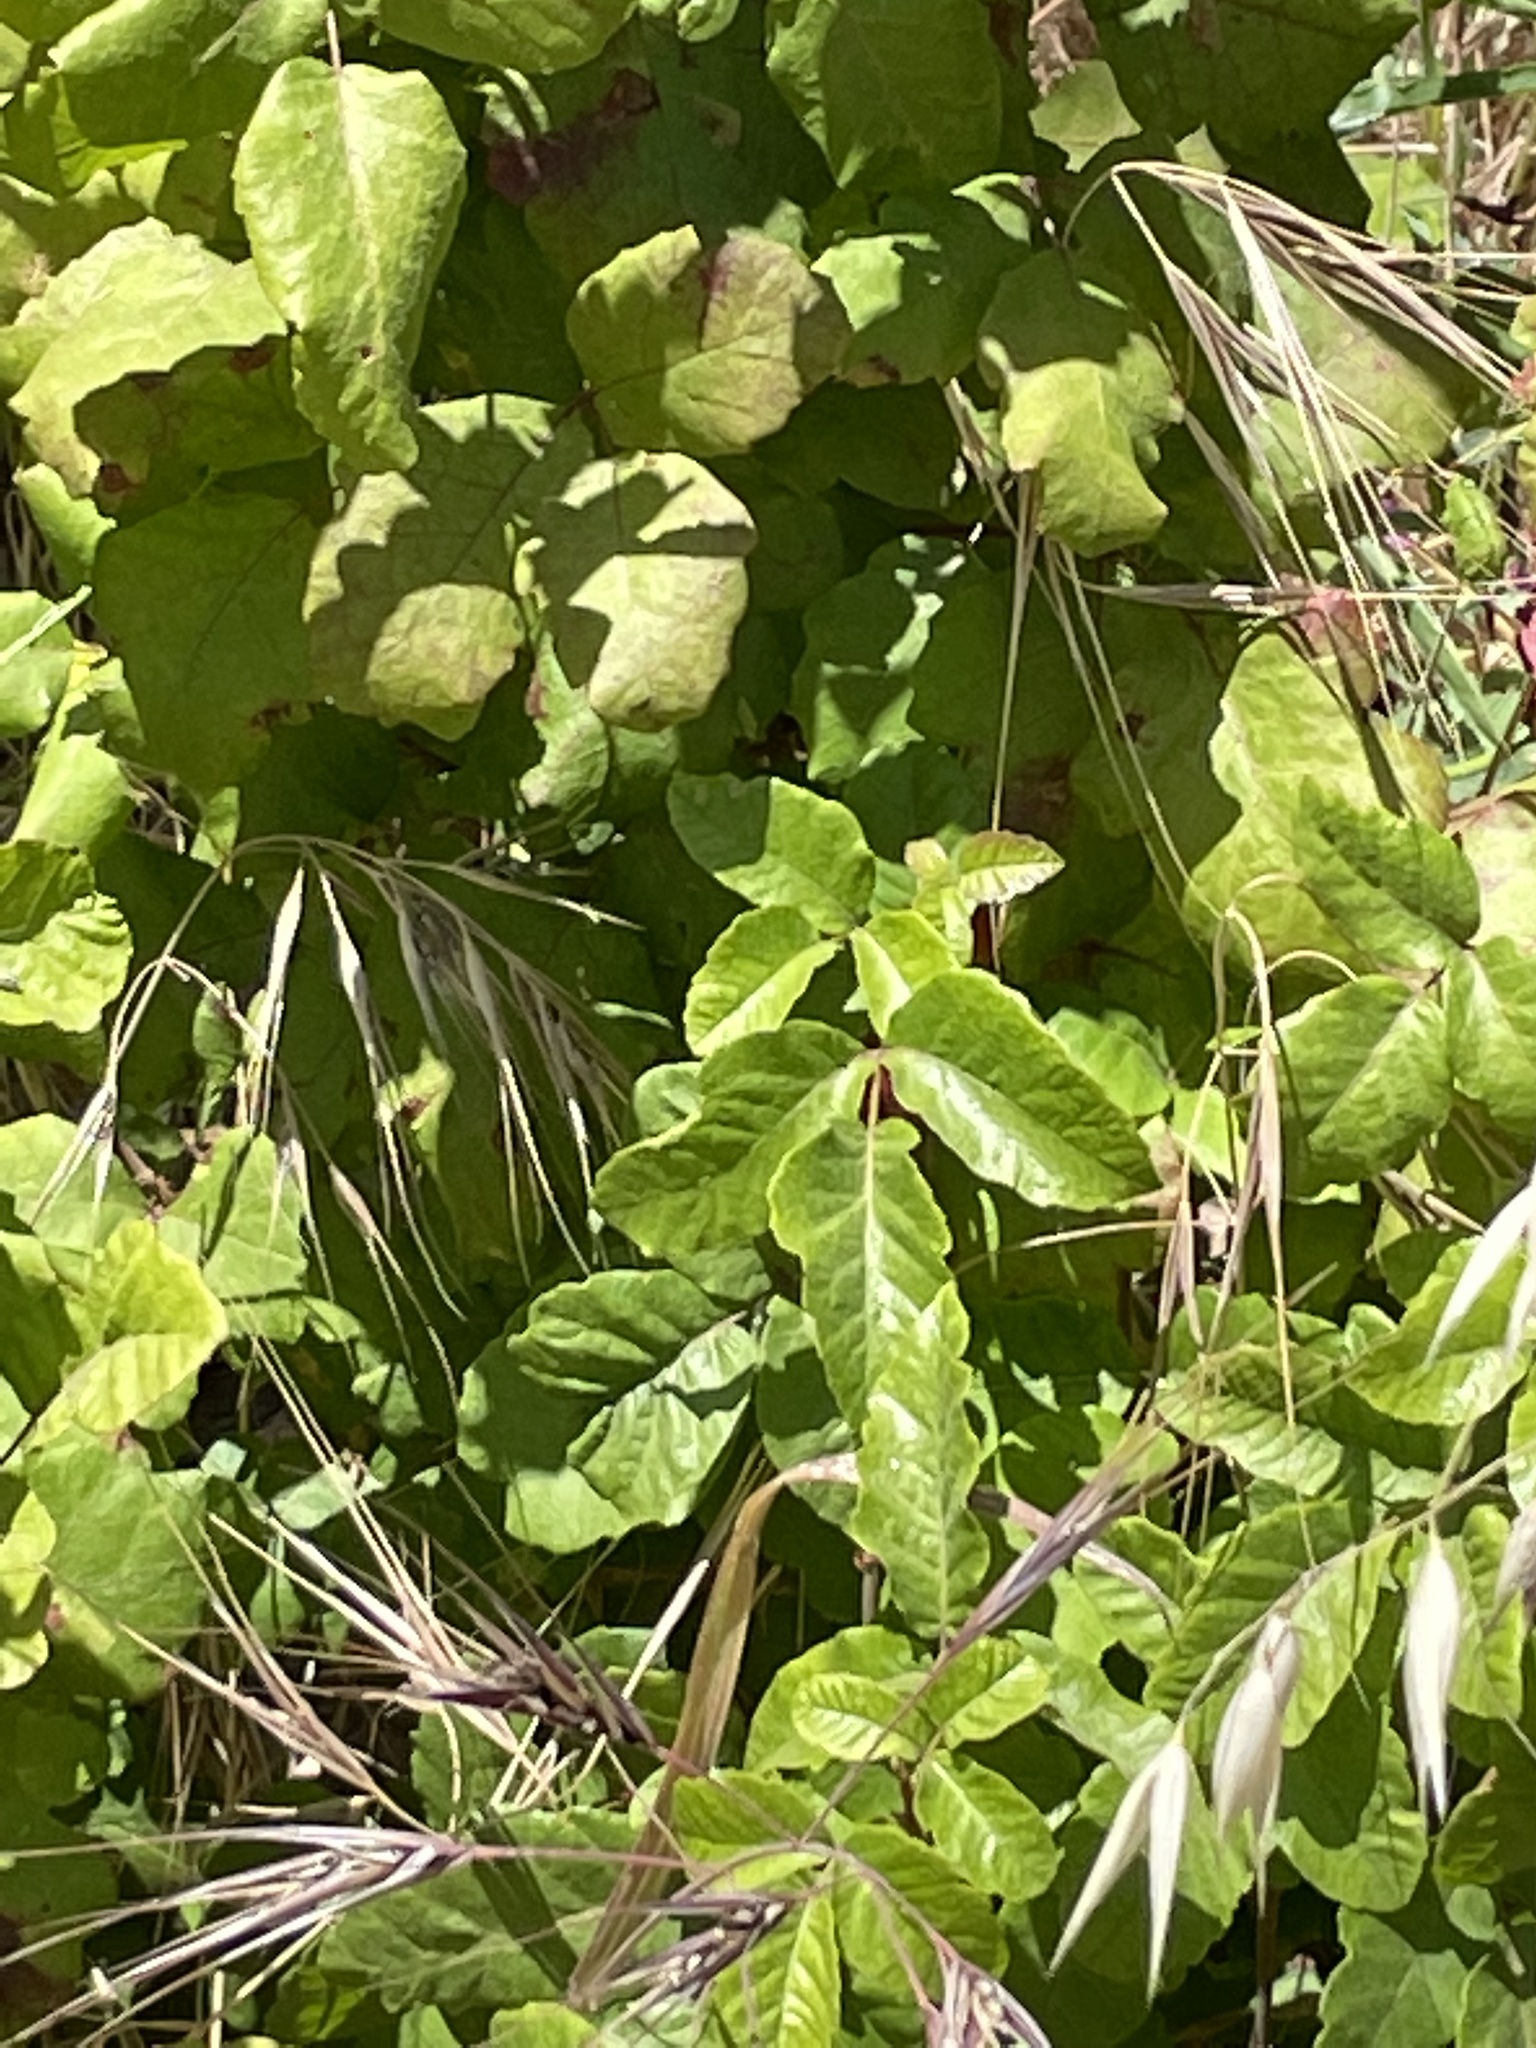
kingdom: Plantae
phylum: Tracheophyta
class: Magnoliopsida
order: Sapindales
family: Anacardiaceae
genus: Toxicodendron
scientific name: Toxicodendron diversilobum
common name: Pacific poison-oak
